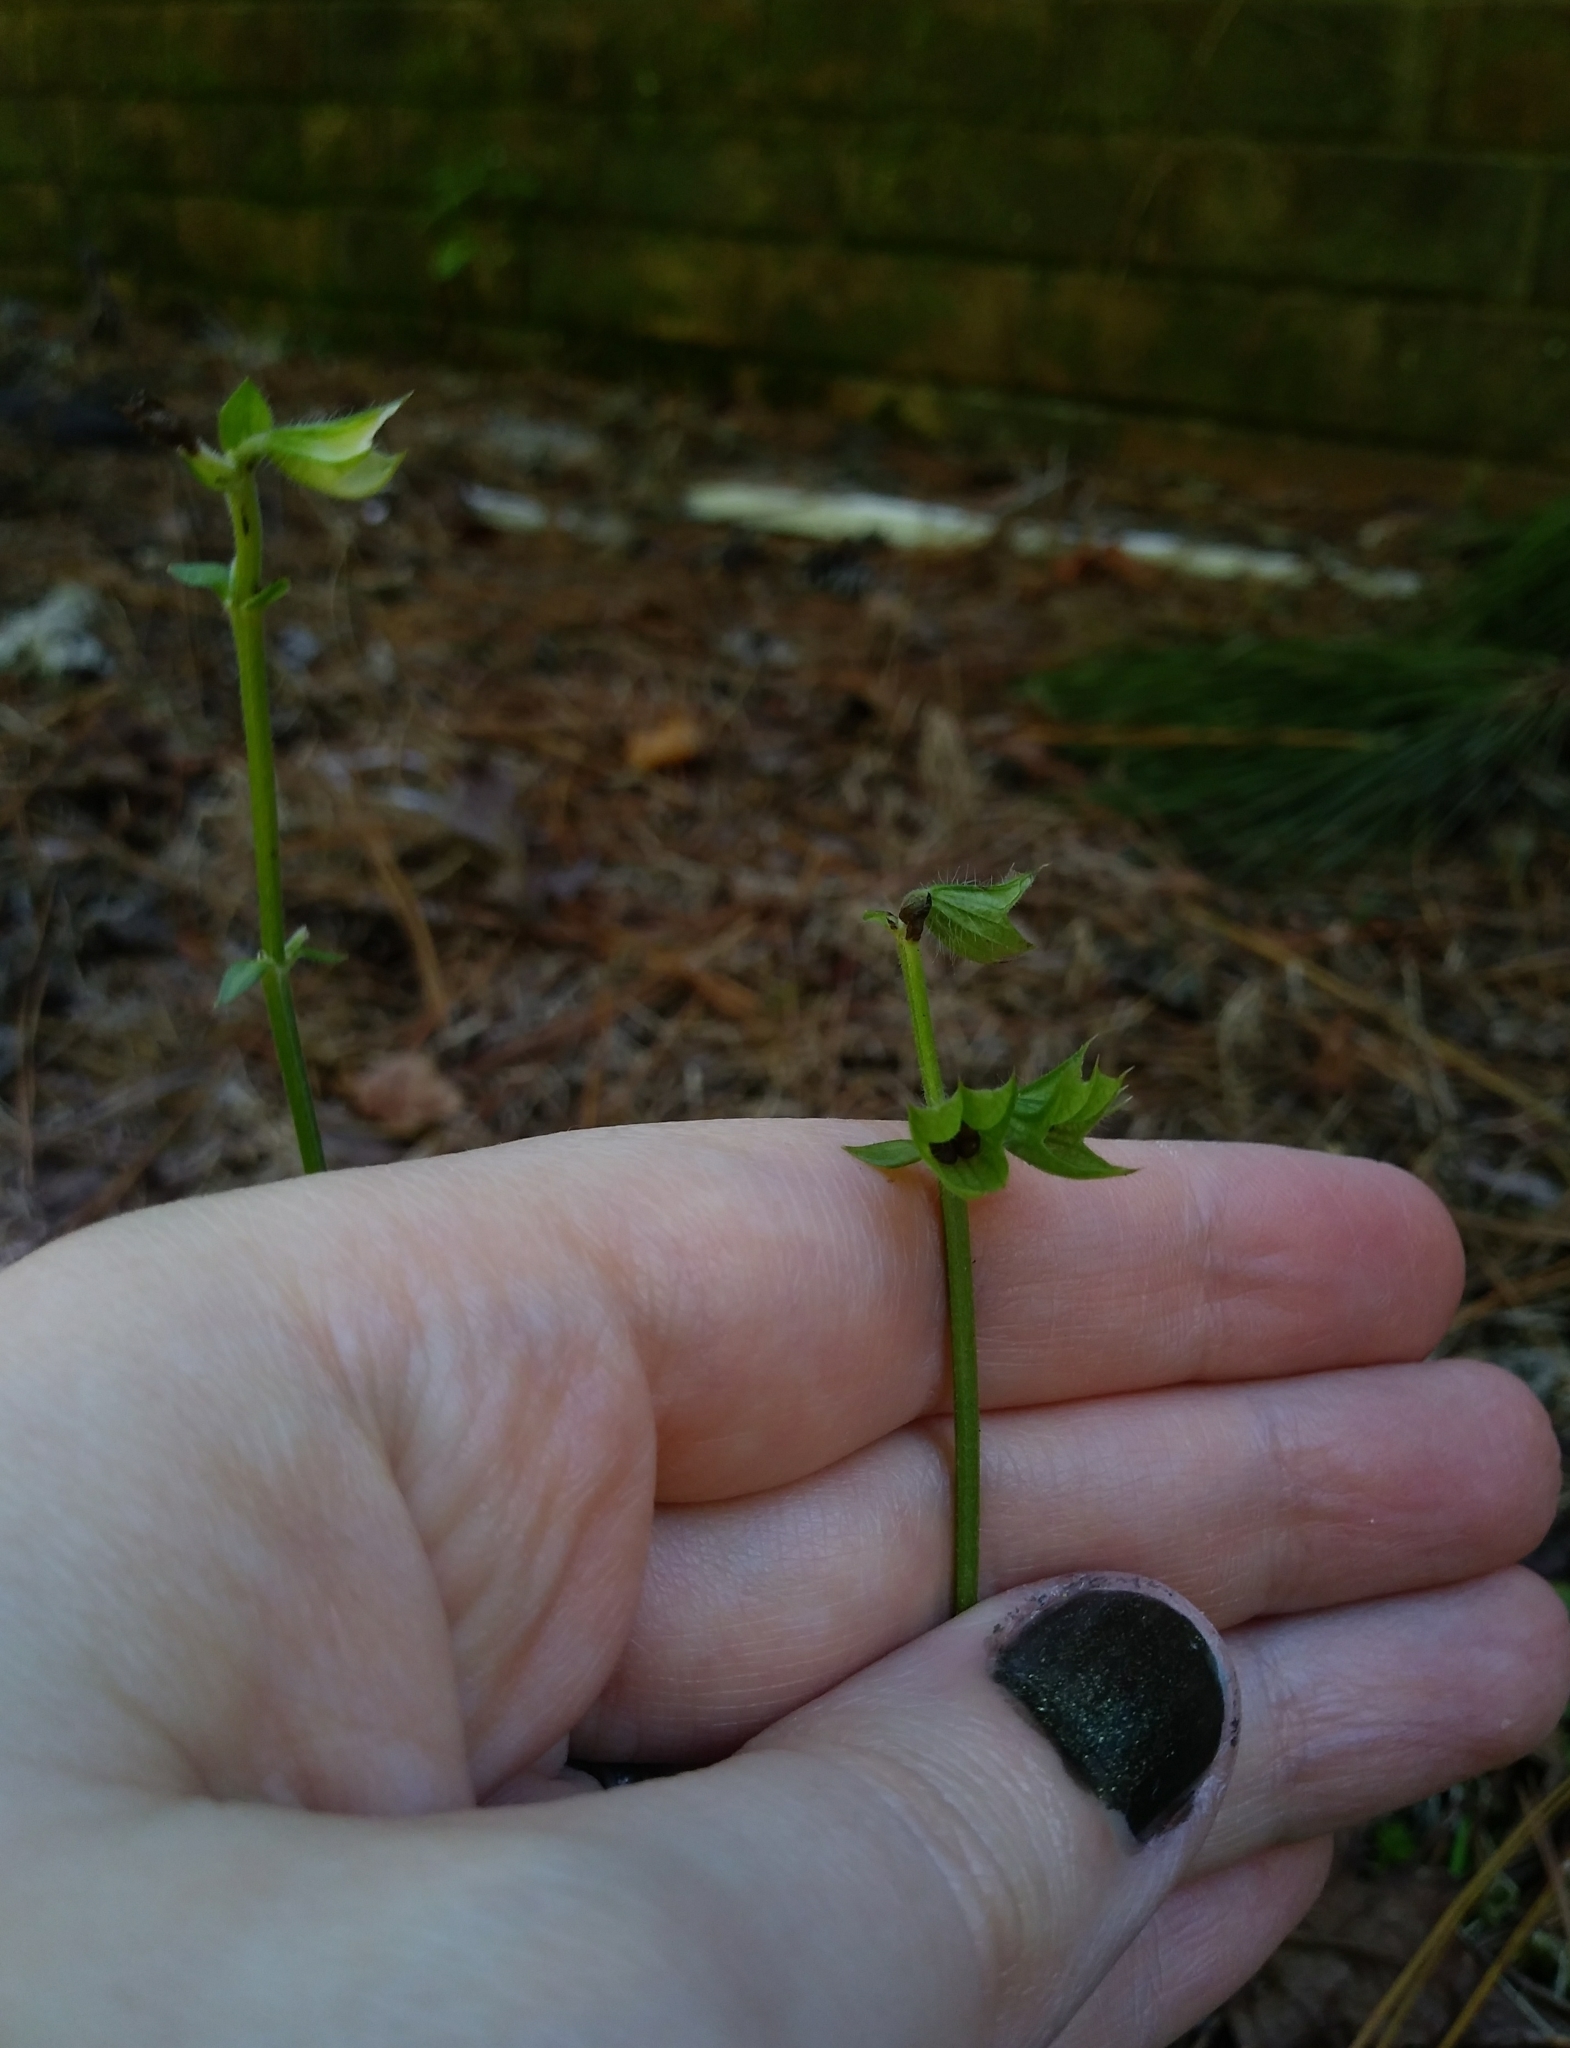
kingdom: Plantae
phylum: Tracheophyta
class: Magnoliopsida
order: Lamiales
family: Lamiaceae
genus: Salvia
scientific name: Salvia lyrata
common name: Cancerweed
